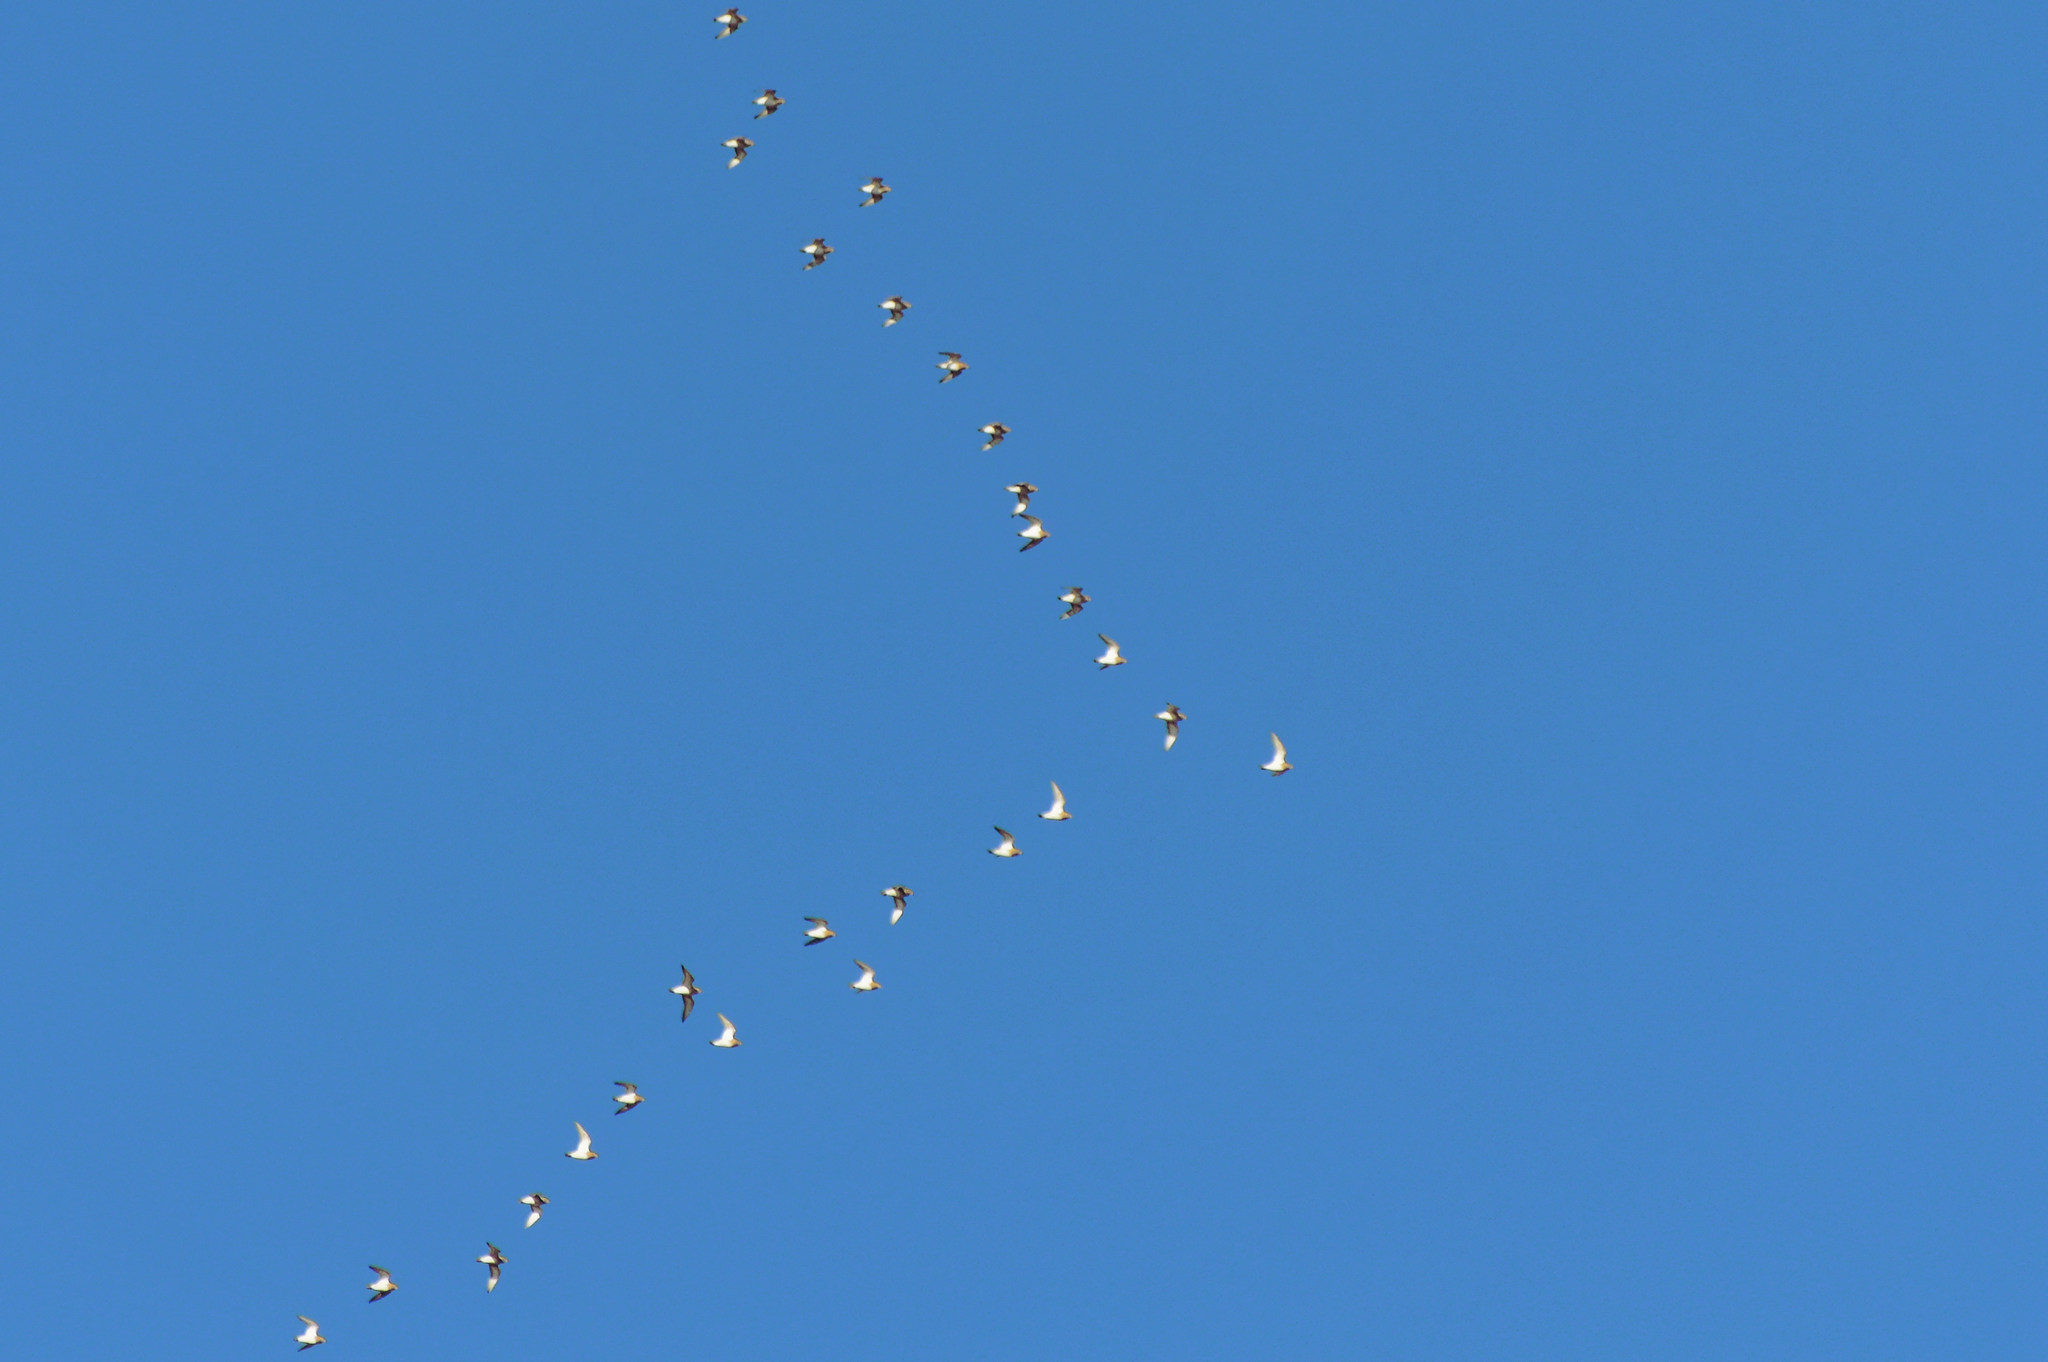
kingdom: Animalia
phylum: Chordata
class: Aves
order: Charadriiformes
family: Charadriidae
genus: Pluvialis
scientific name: Pluvialis apricaria
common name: European golden plover
